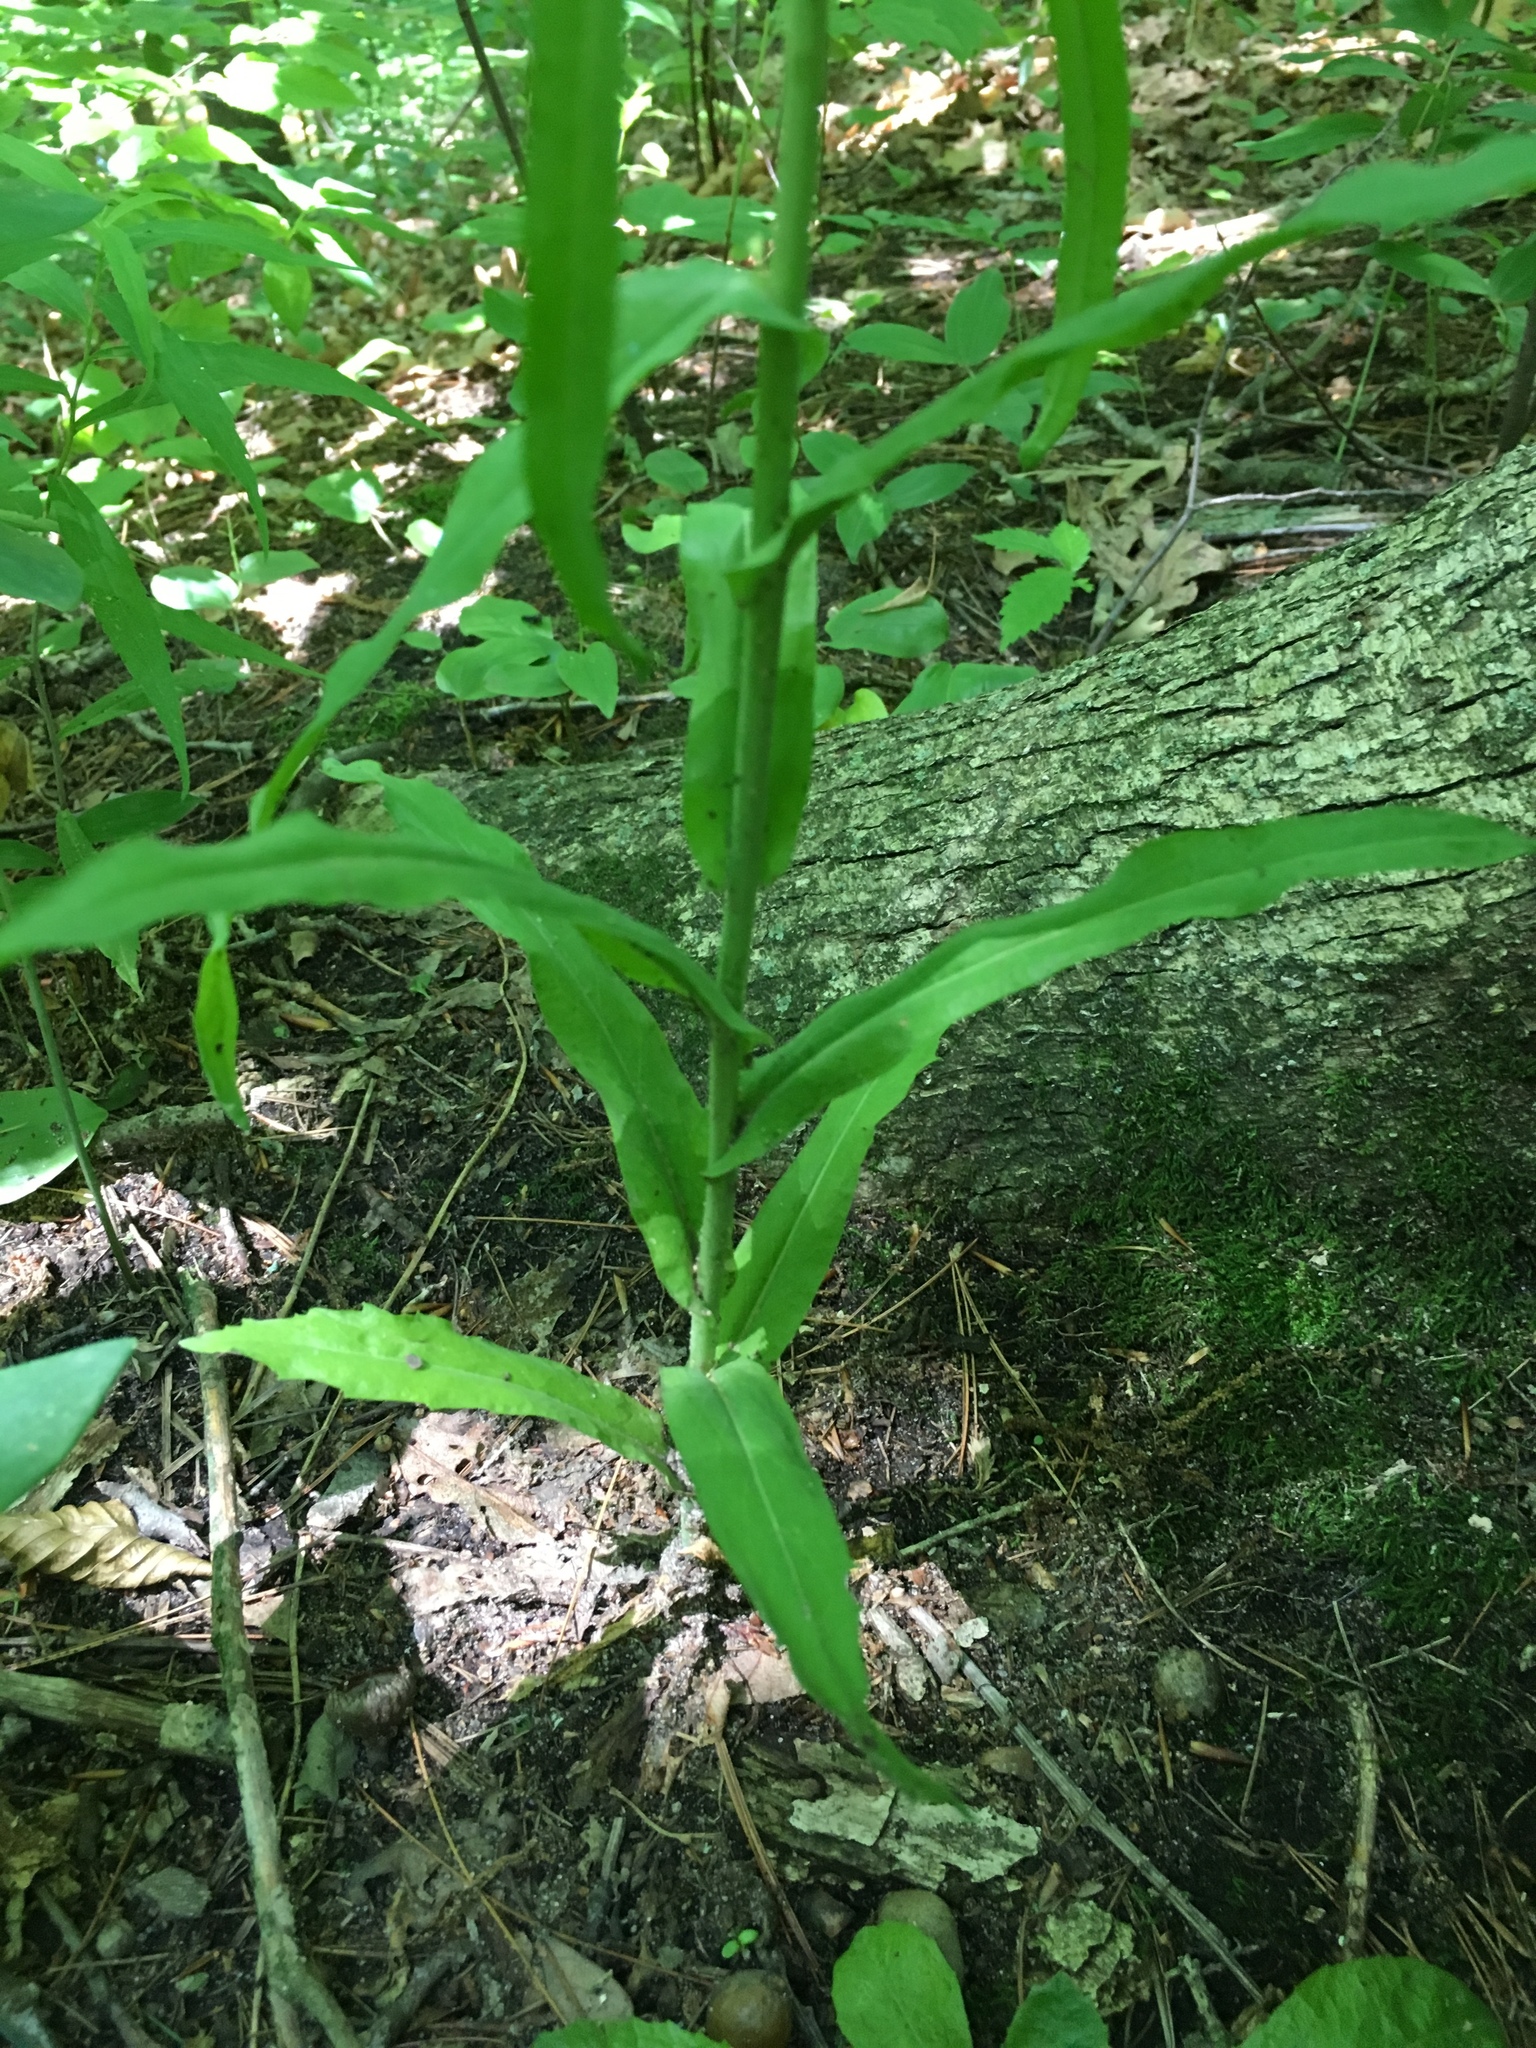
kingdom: Plantae
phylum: Tracheophyta
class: Magnoliopsida
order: Brassicales
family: Brassicaceae
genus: Borodinia
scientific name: Borodinia laevigata
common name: Smooth rockcress
